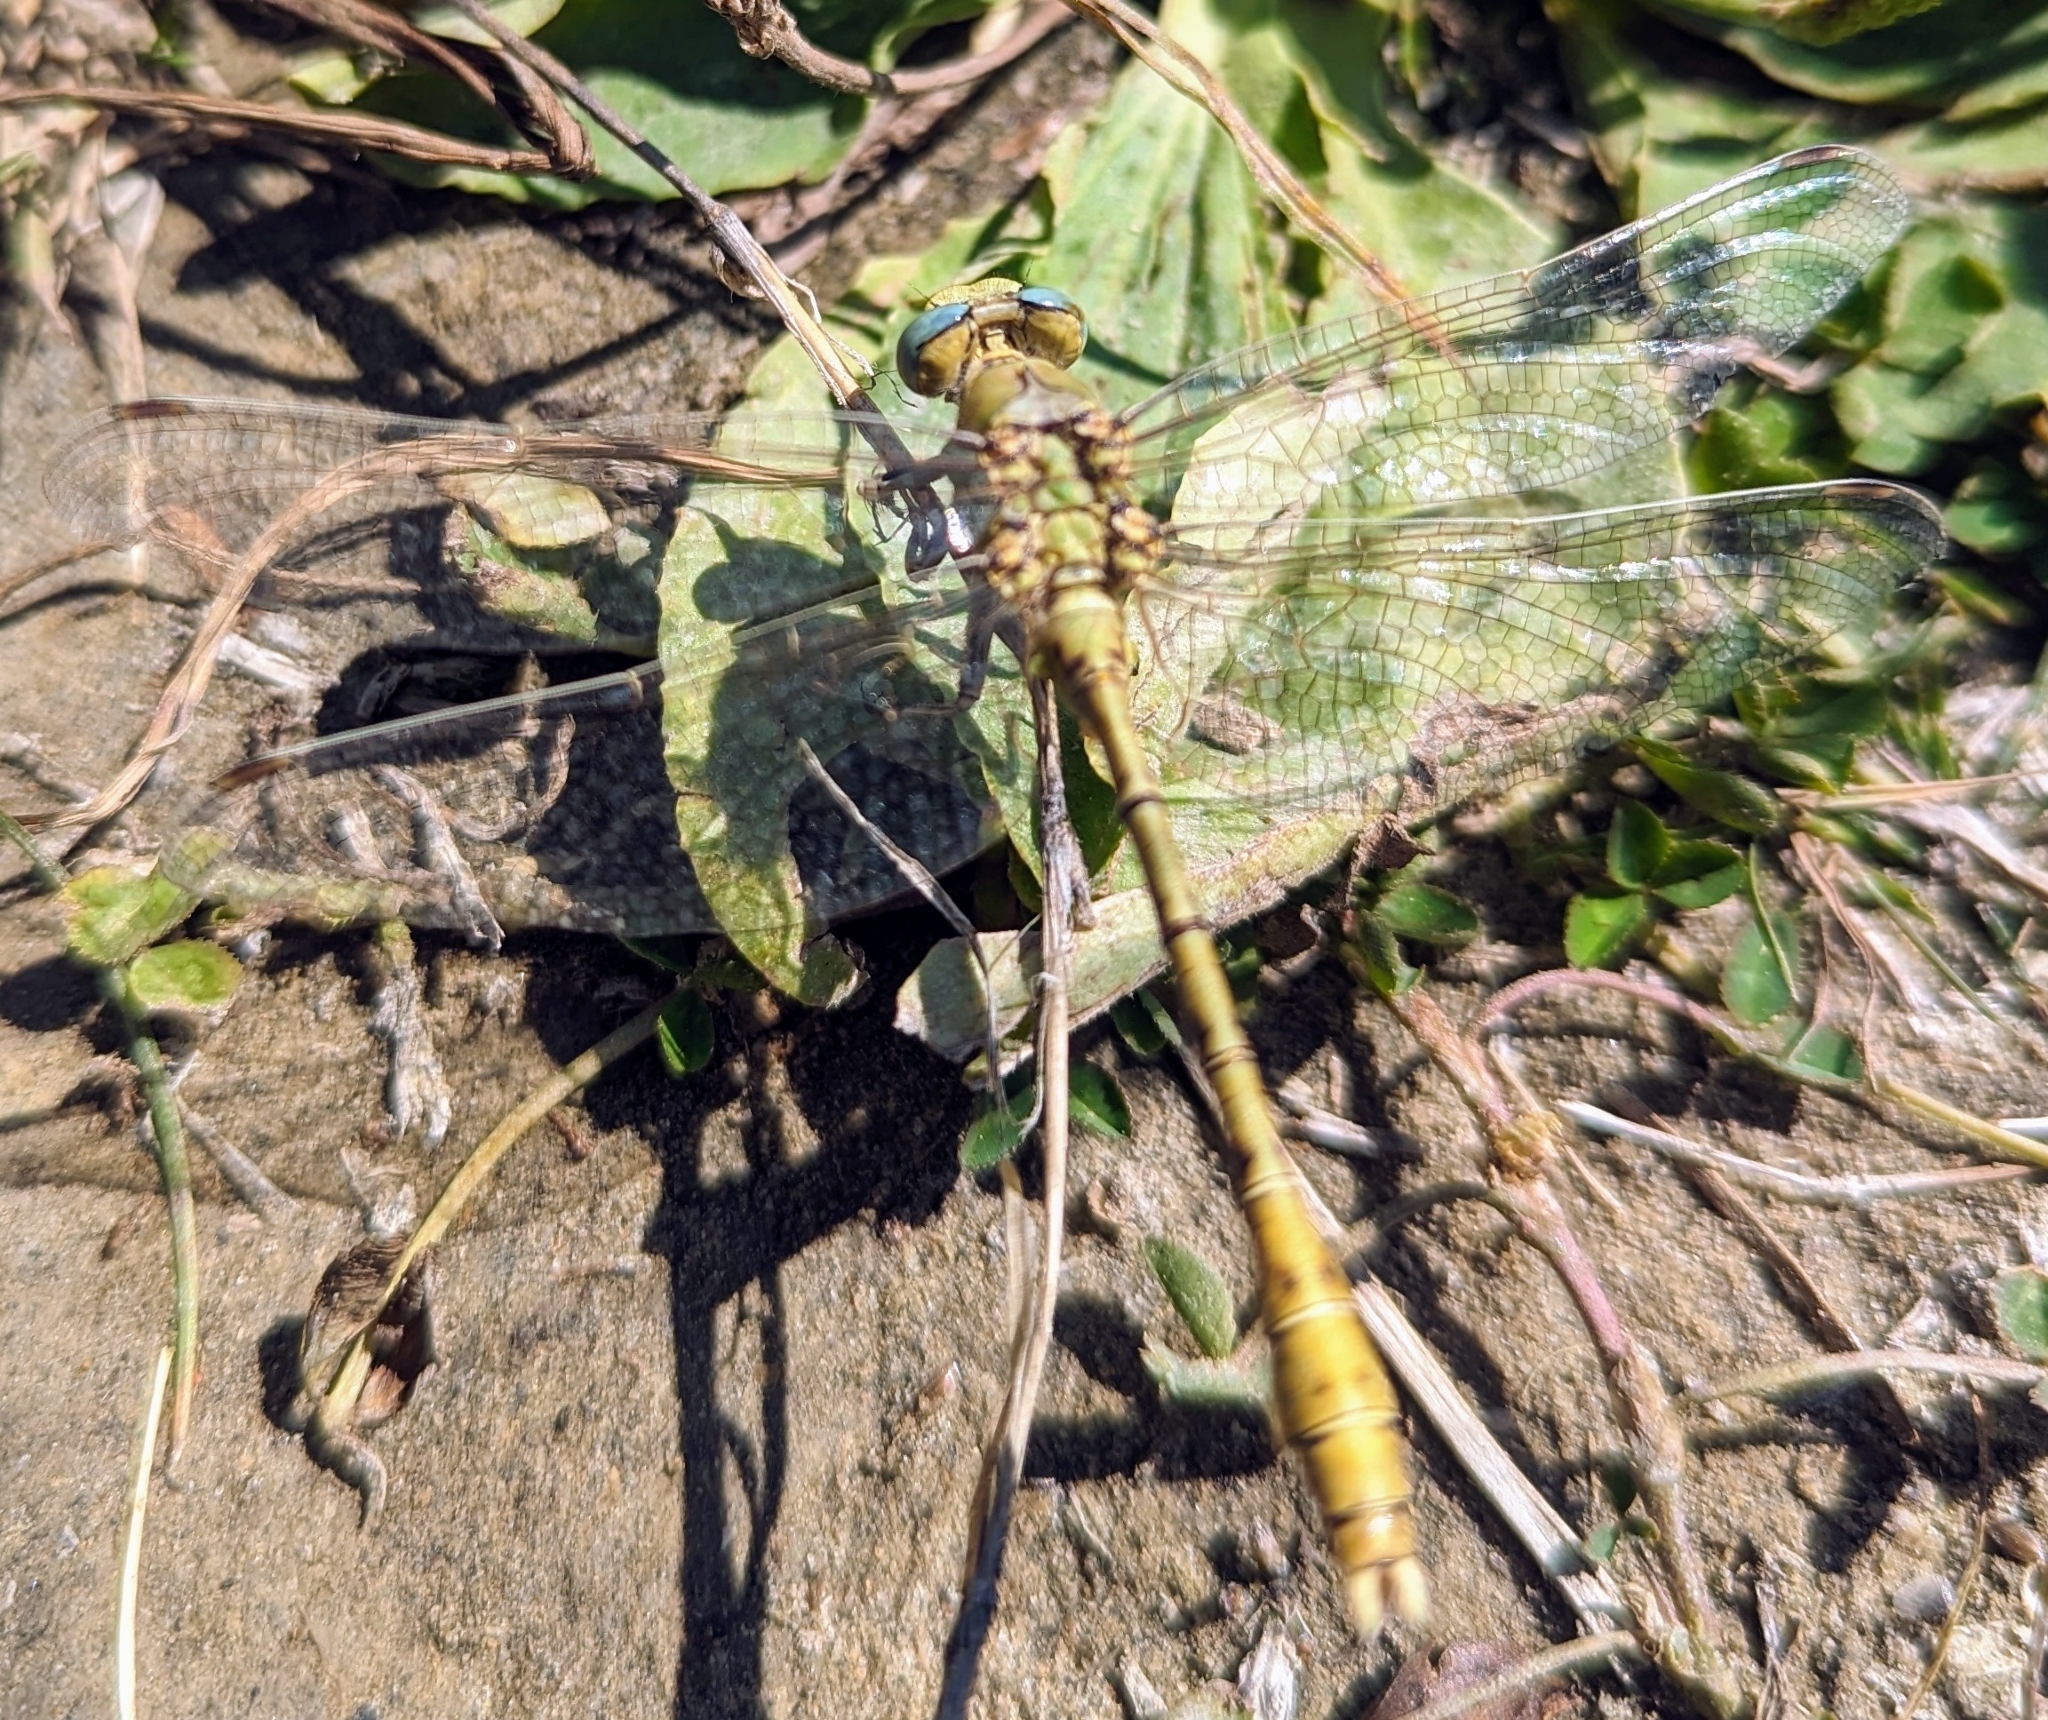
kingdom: Animalia
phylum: Arthropoda
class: Insecta
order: Odonata
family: Gomphidae
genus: Ophiogomphus
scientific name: Ophiogomphus severus
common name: Pale snaketail
